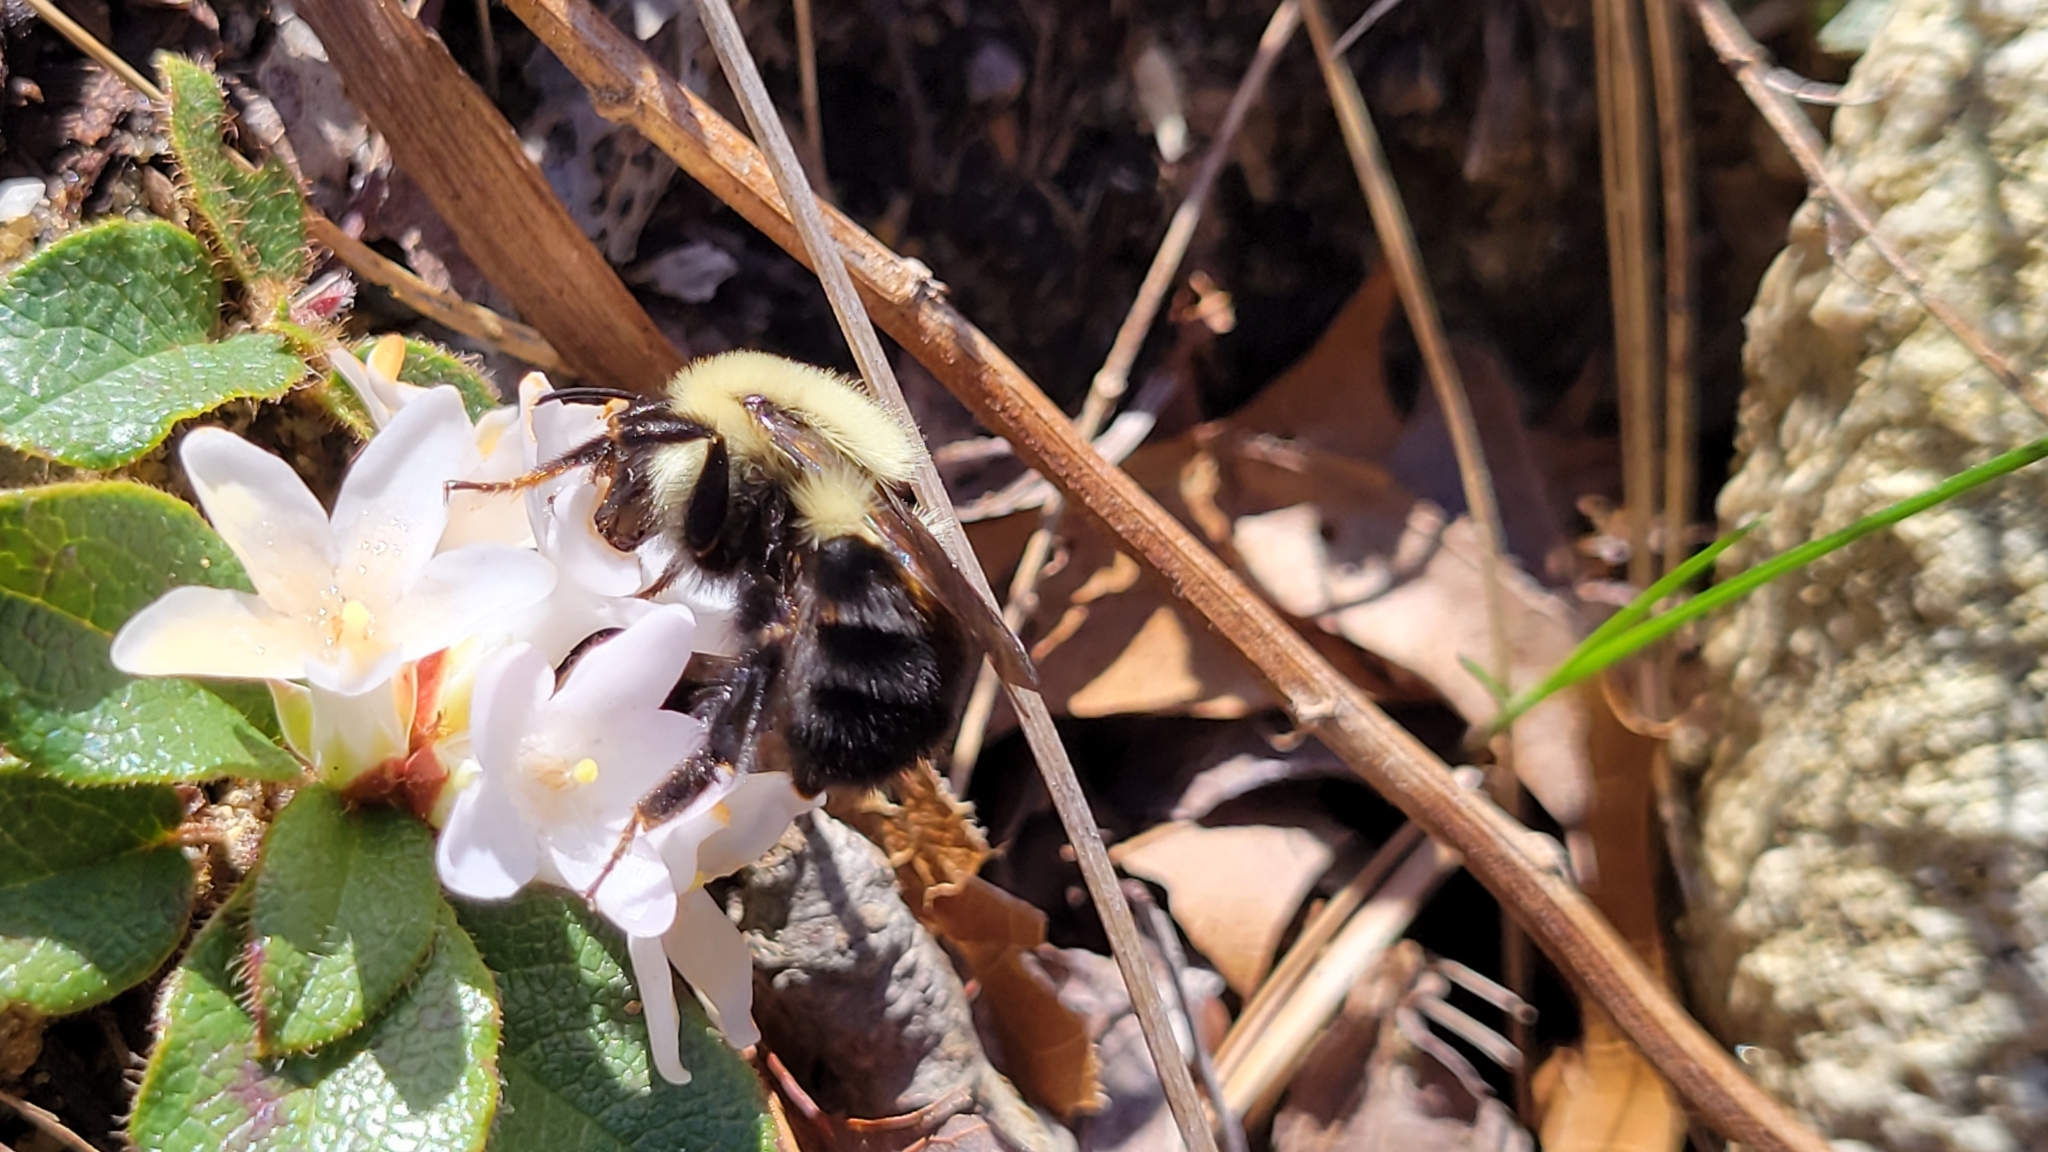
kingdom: Animalia
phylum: Arthropoda
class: Insecta
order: Hymenoptera
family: Apidae
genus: Bombus
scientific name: Bombus bimaculatus
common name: Two-spotted bumble bee
